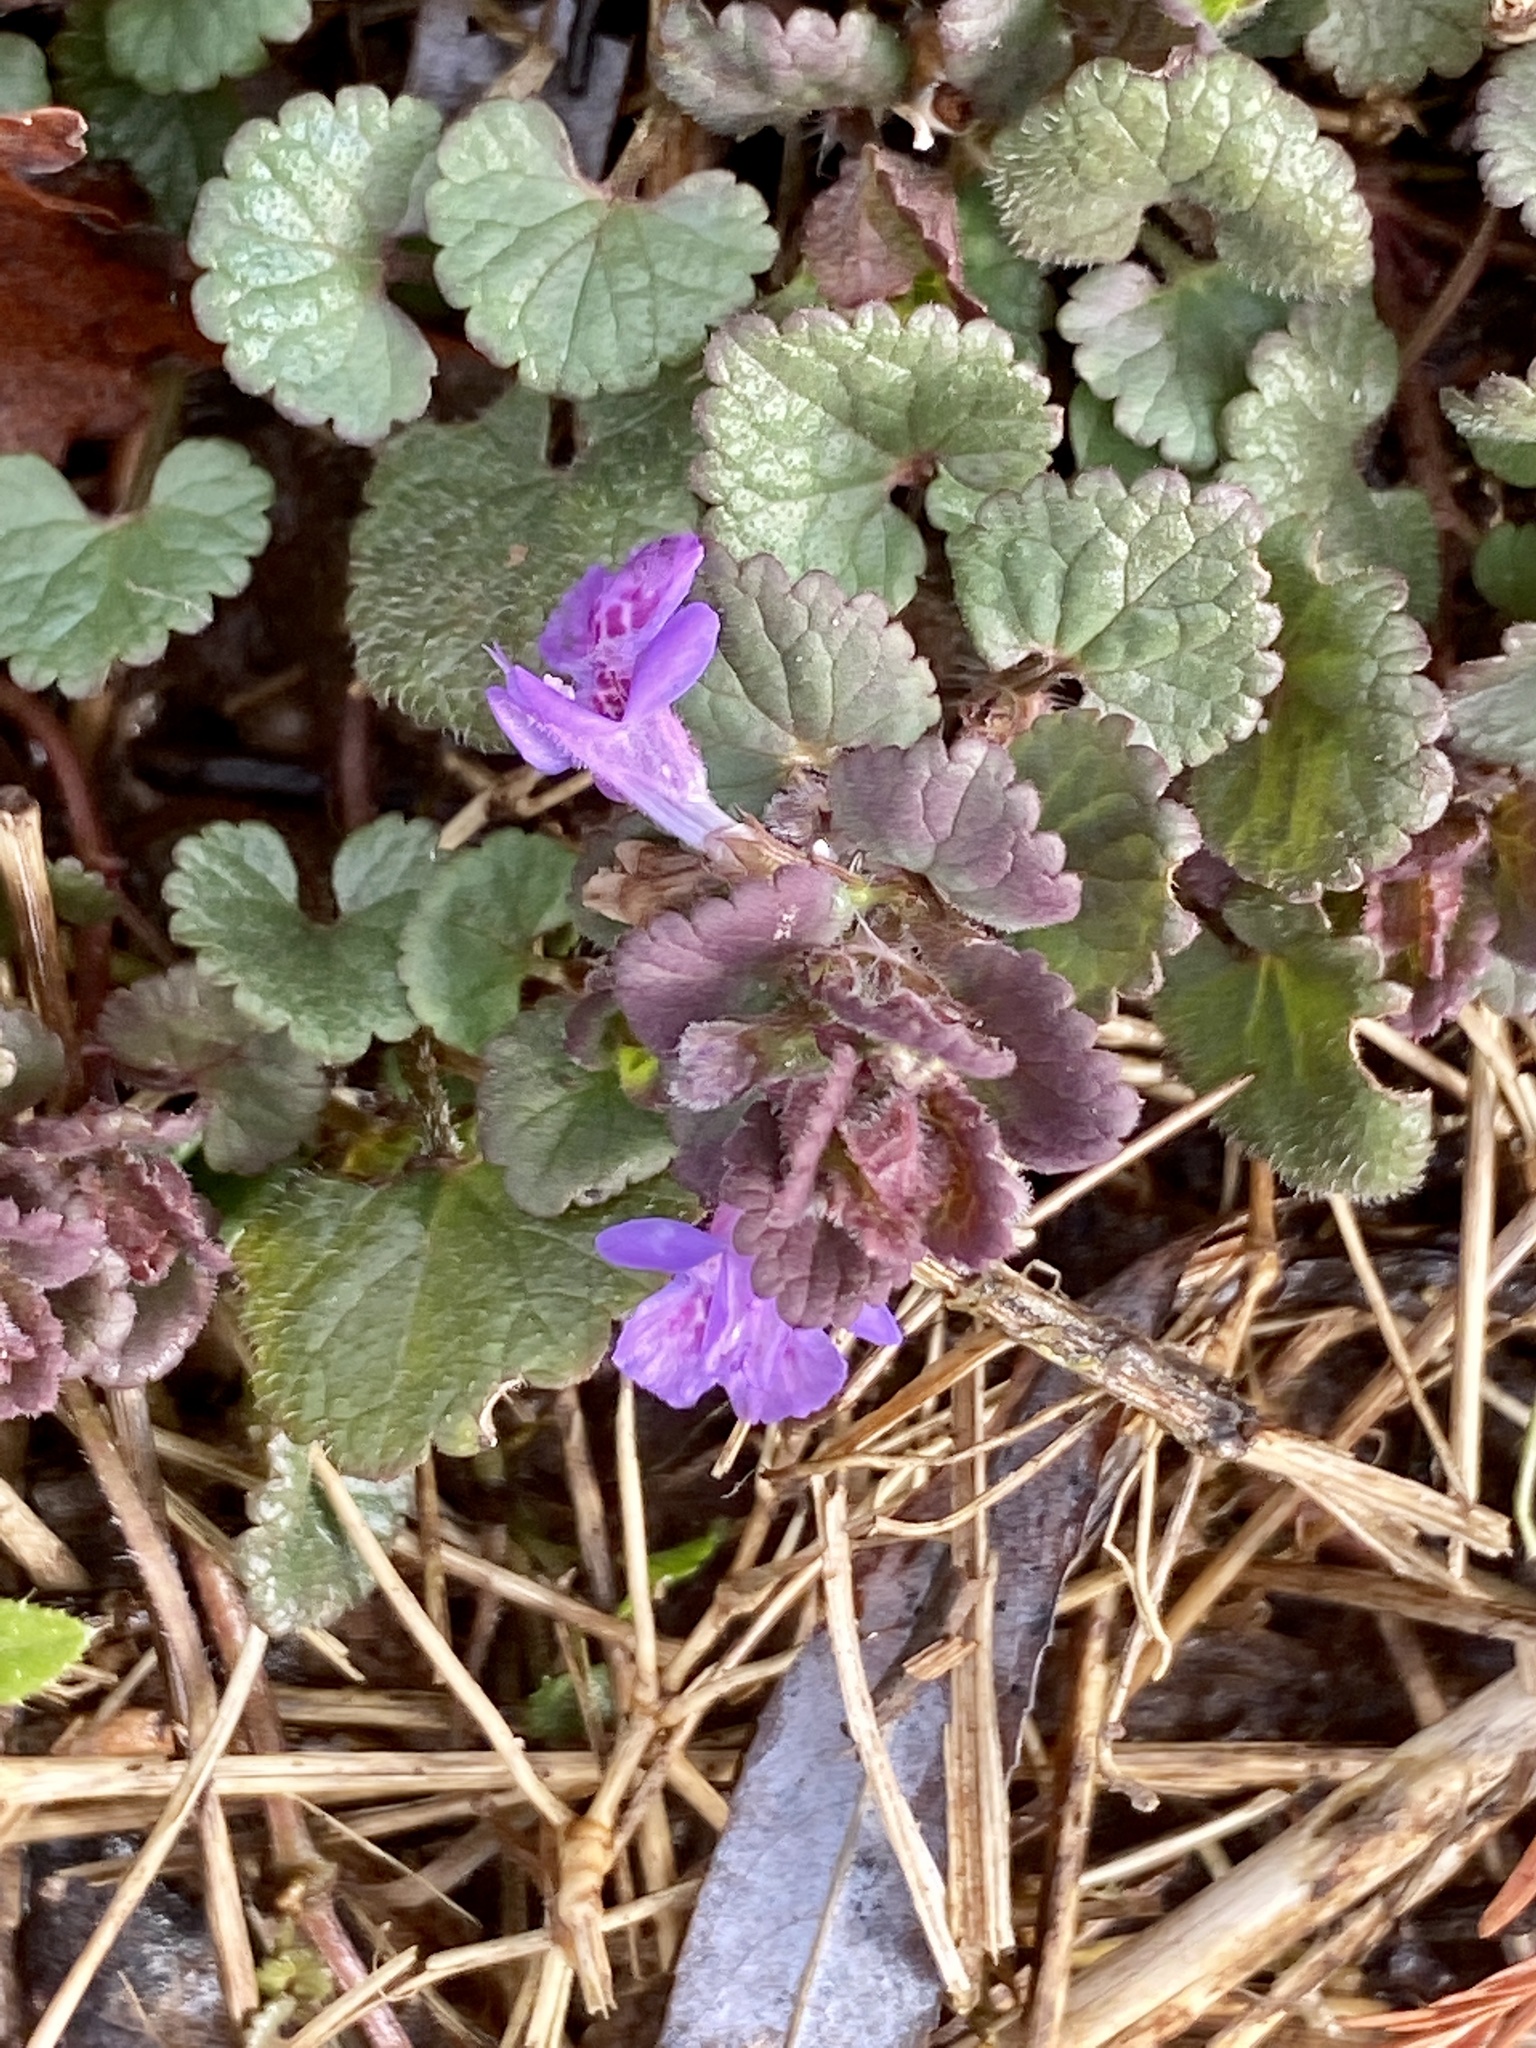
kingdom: Plantae
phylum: Tracheophyta
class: Magnoliopsida
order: Lamiales
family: Lamiaceae
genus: Glechoma
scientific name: Glechoma hederacea
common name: Ground ivy
